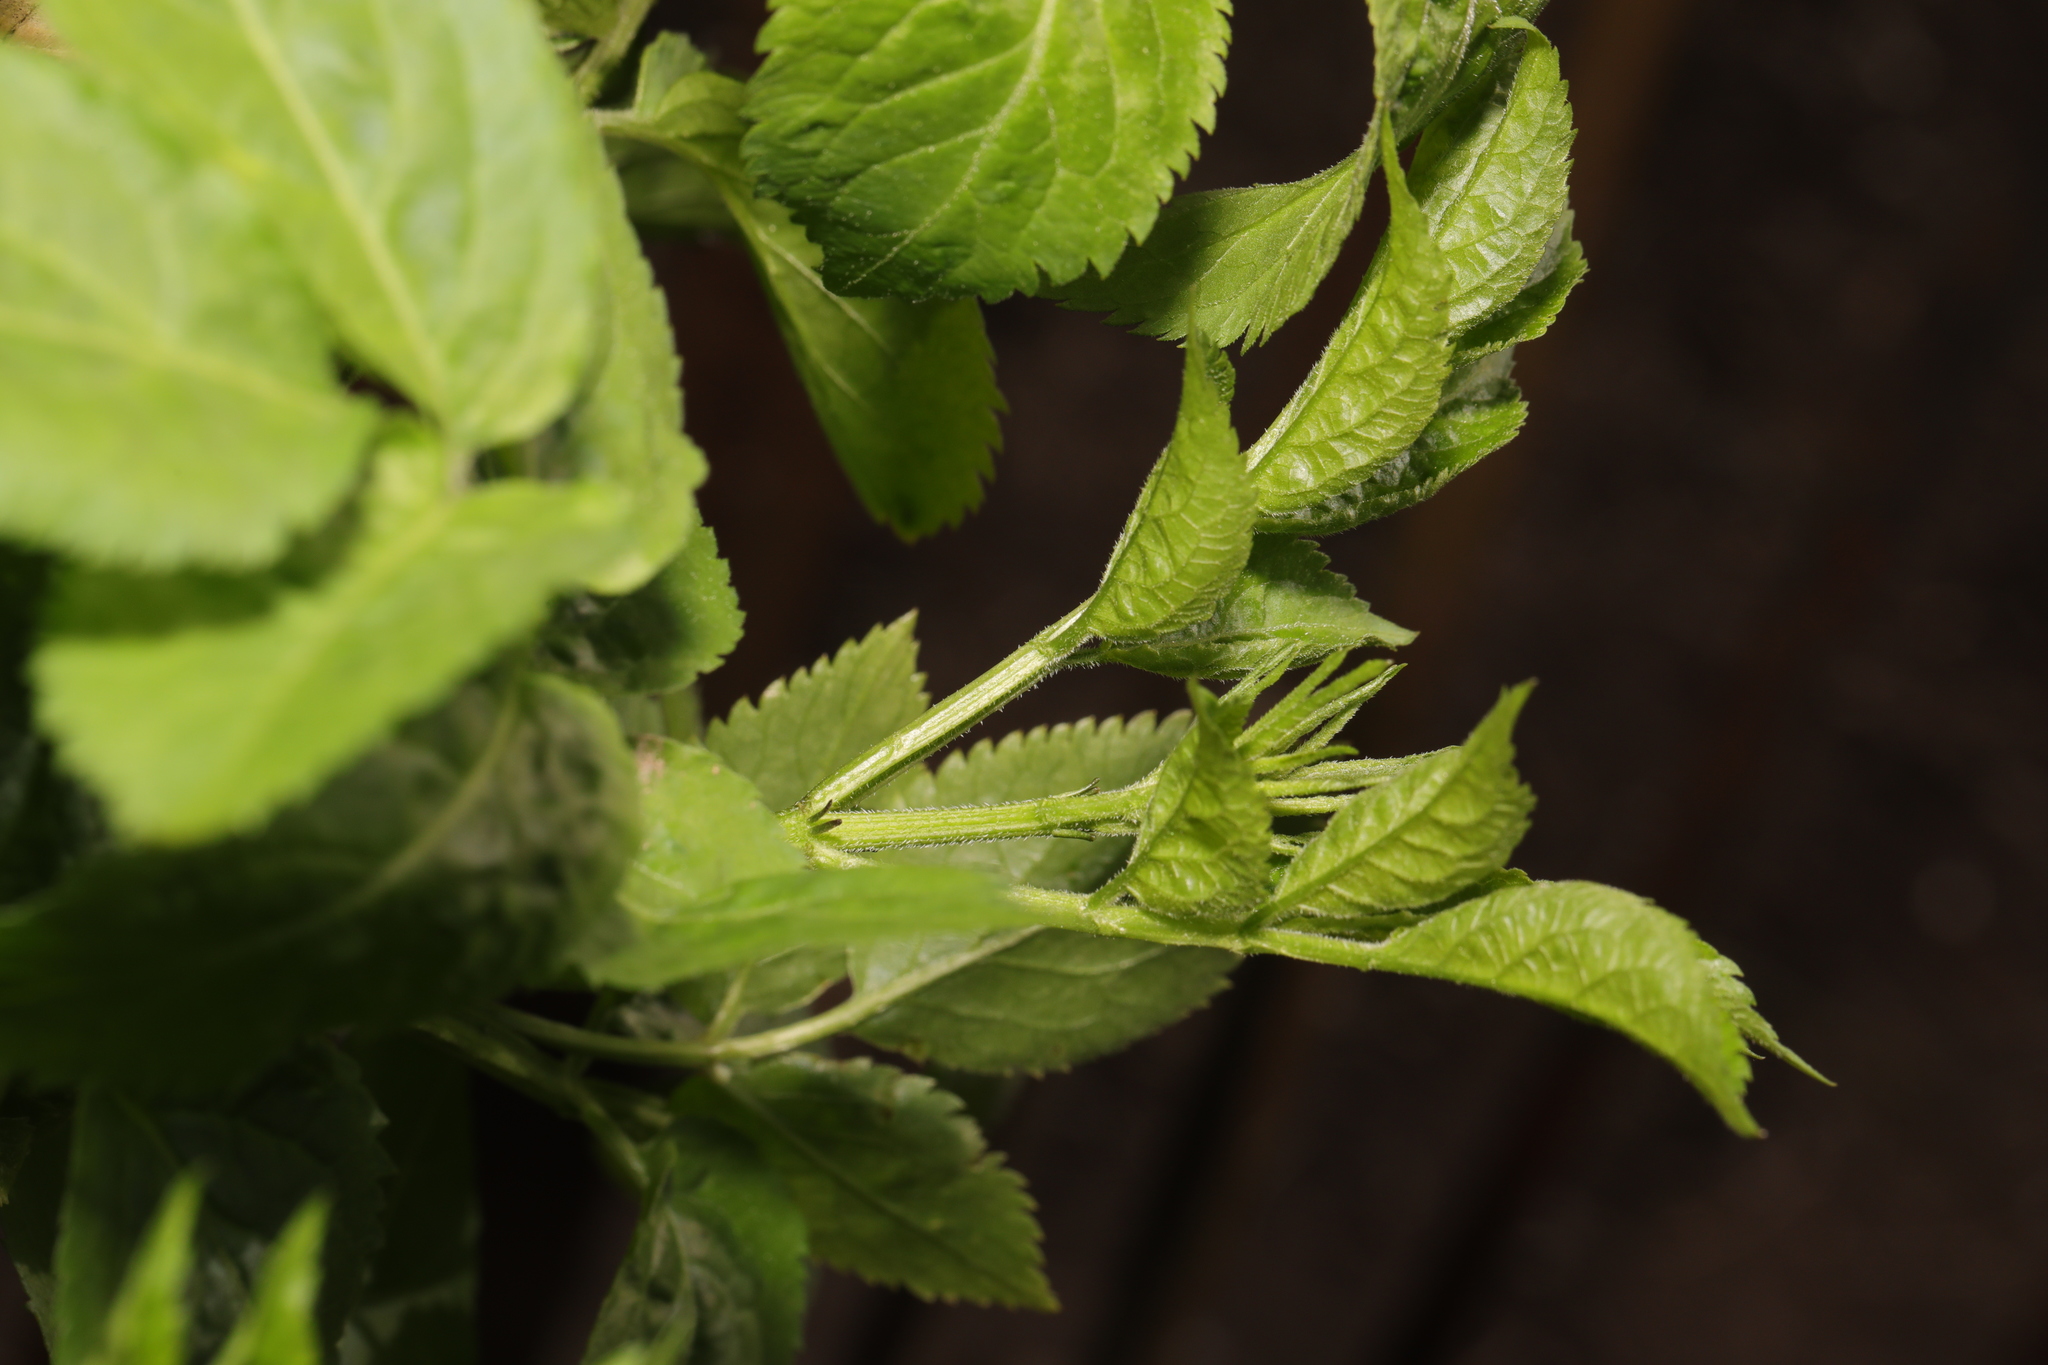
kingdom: Plantae
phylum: Tracheophyta
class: Magnoliopsida
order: Dipsacales
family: Viburnaceae
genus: Sambucus
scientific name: Sambucus nigra
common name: Elder
